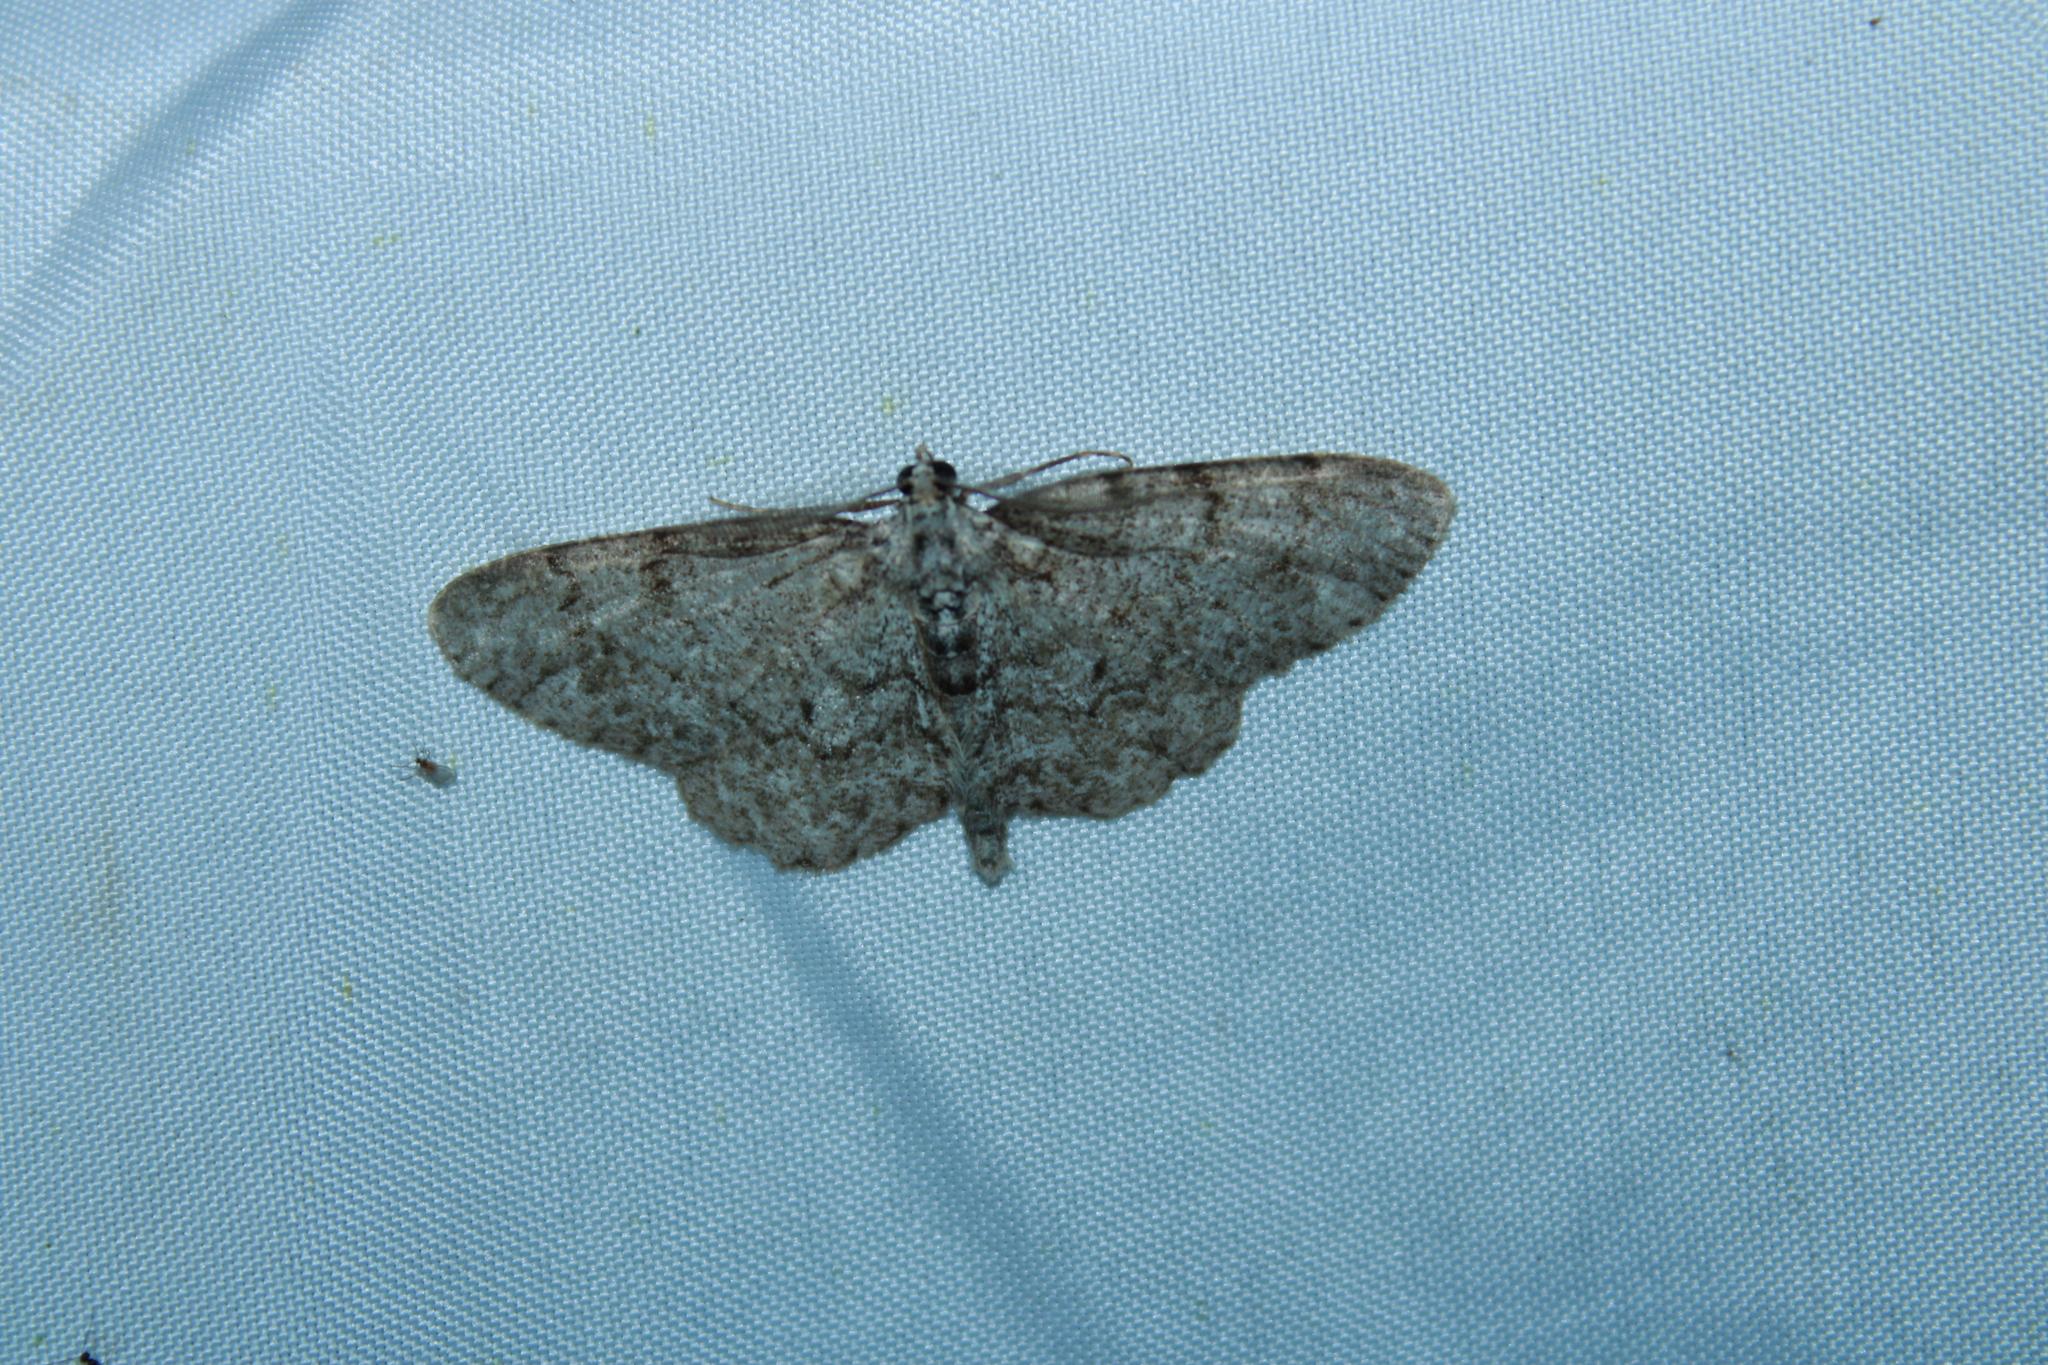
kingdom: Animalia
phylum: Arthropoda
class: Insecta
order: Lepidoptera
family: Geometridae
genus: Protoboarmia
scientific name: Protoboarmia porcelaria
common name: Porcelain gray
